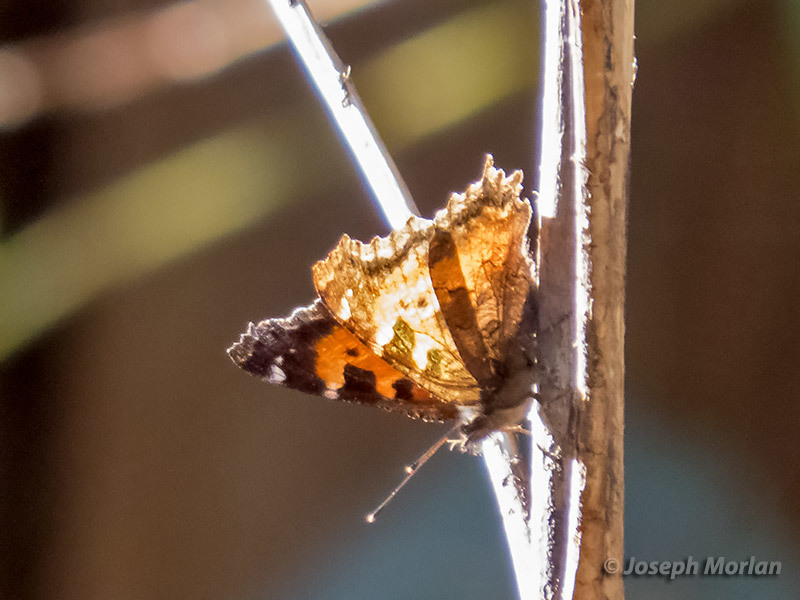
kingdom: Animalia
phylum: Arthropoda
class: Insecta
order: Lepidoptera
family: Nymphalidae
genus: Nymphalis
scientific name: Nymphalis californica
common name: California tortoiseshell
